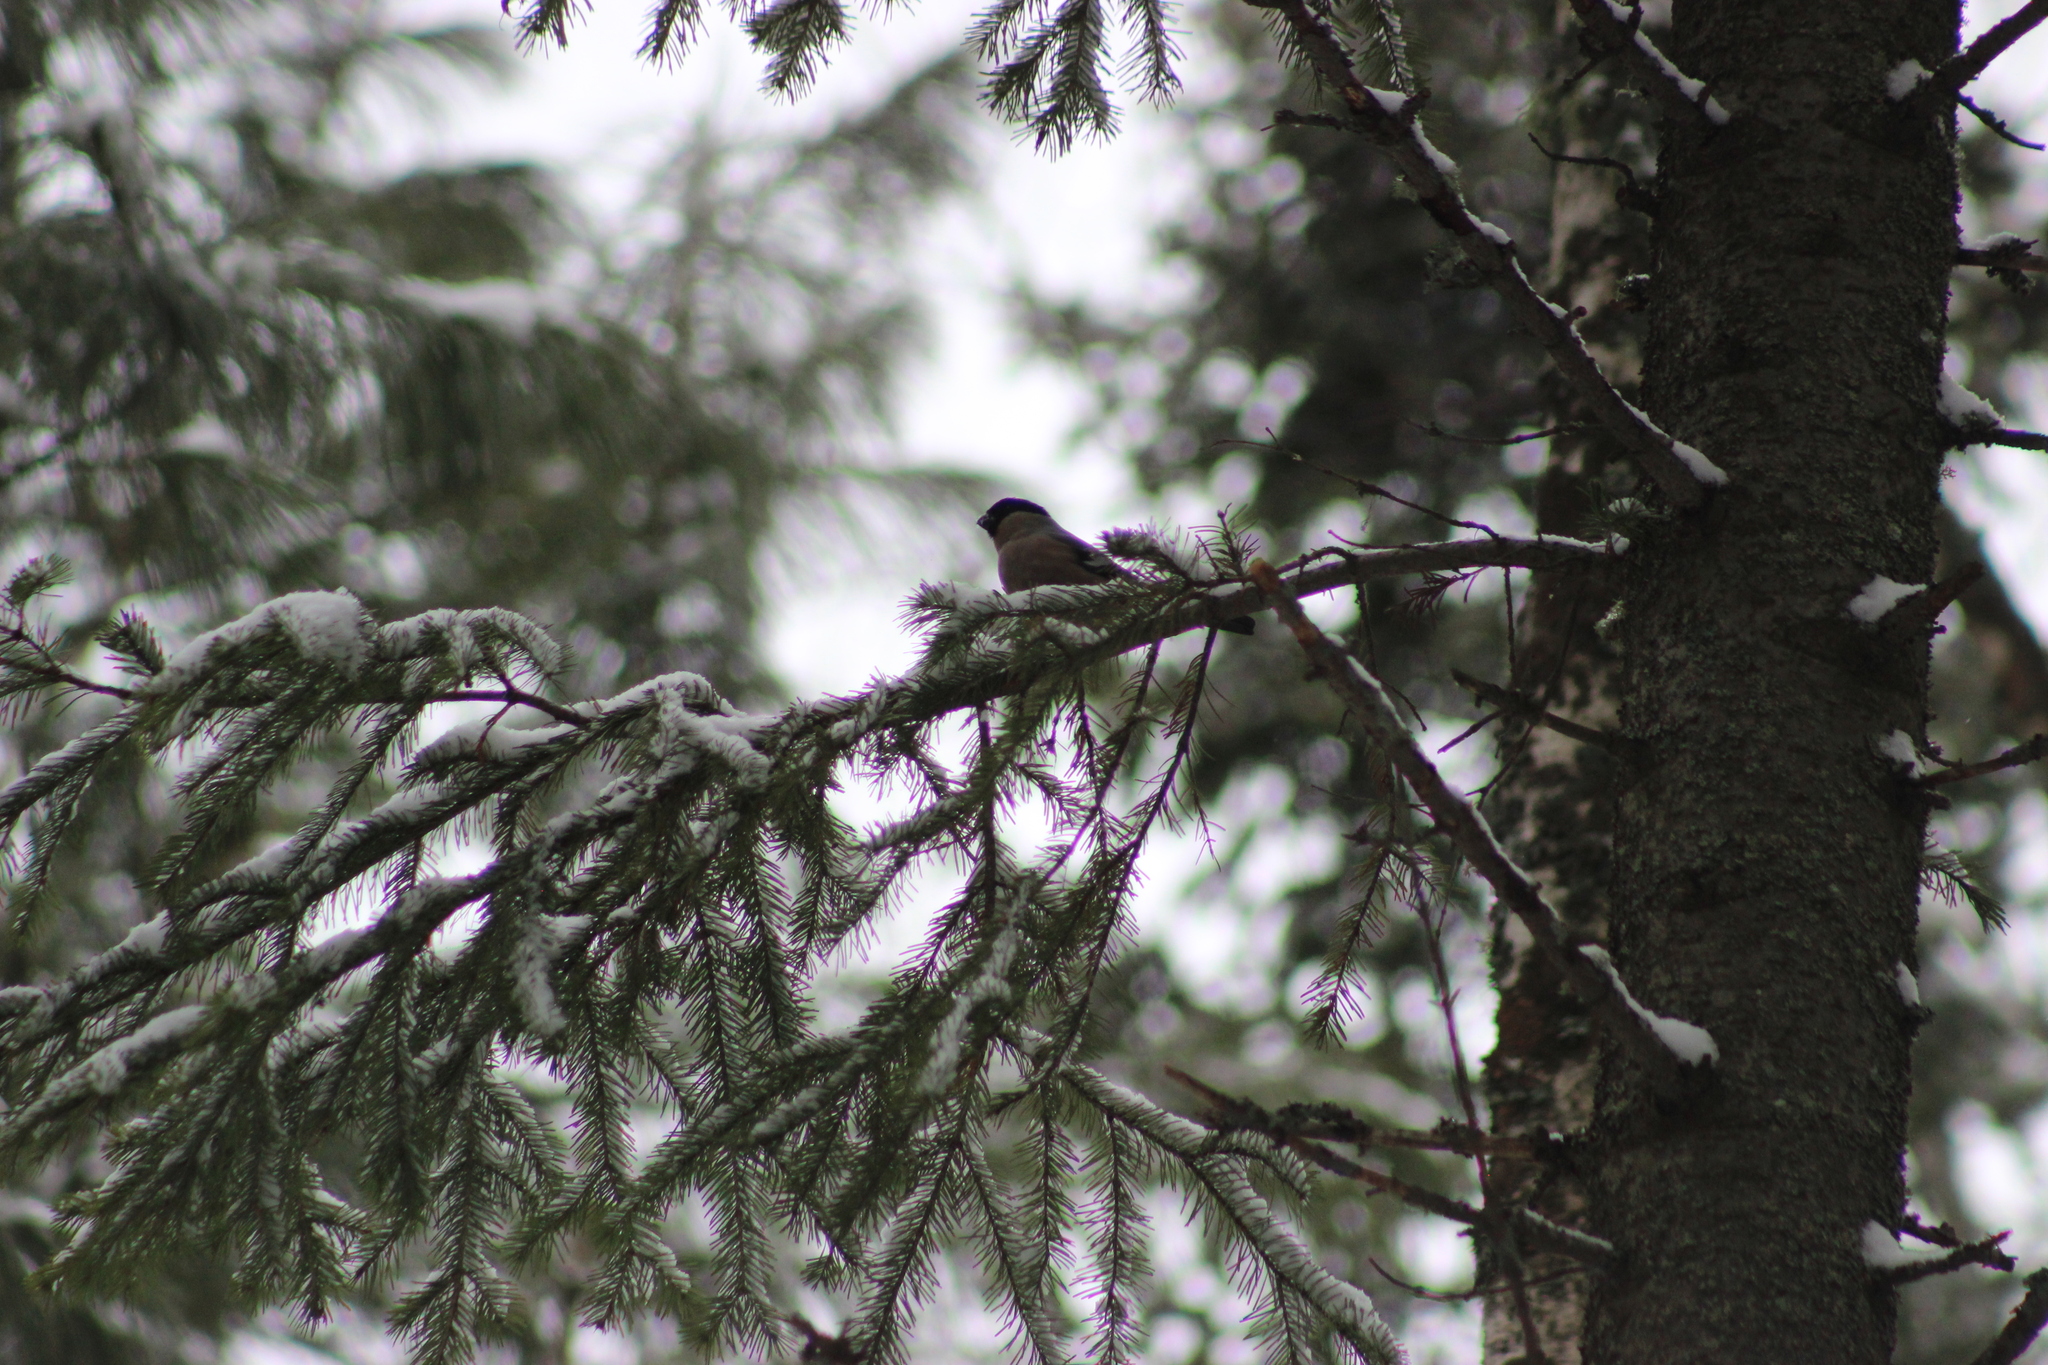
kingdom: Animalia
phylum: Chordata
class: Aves
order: Passeriformes
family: Fringillidae
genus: Pyrrhula
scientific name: Pyrrhula pyrrhula
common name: Eurasian bullfinch
